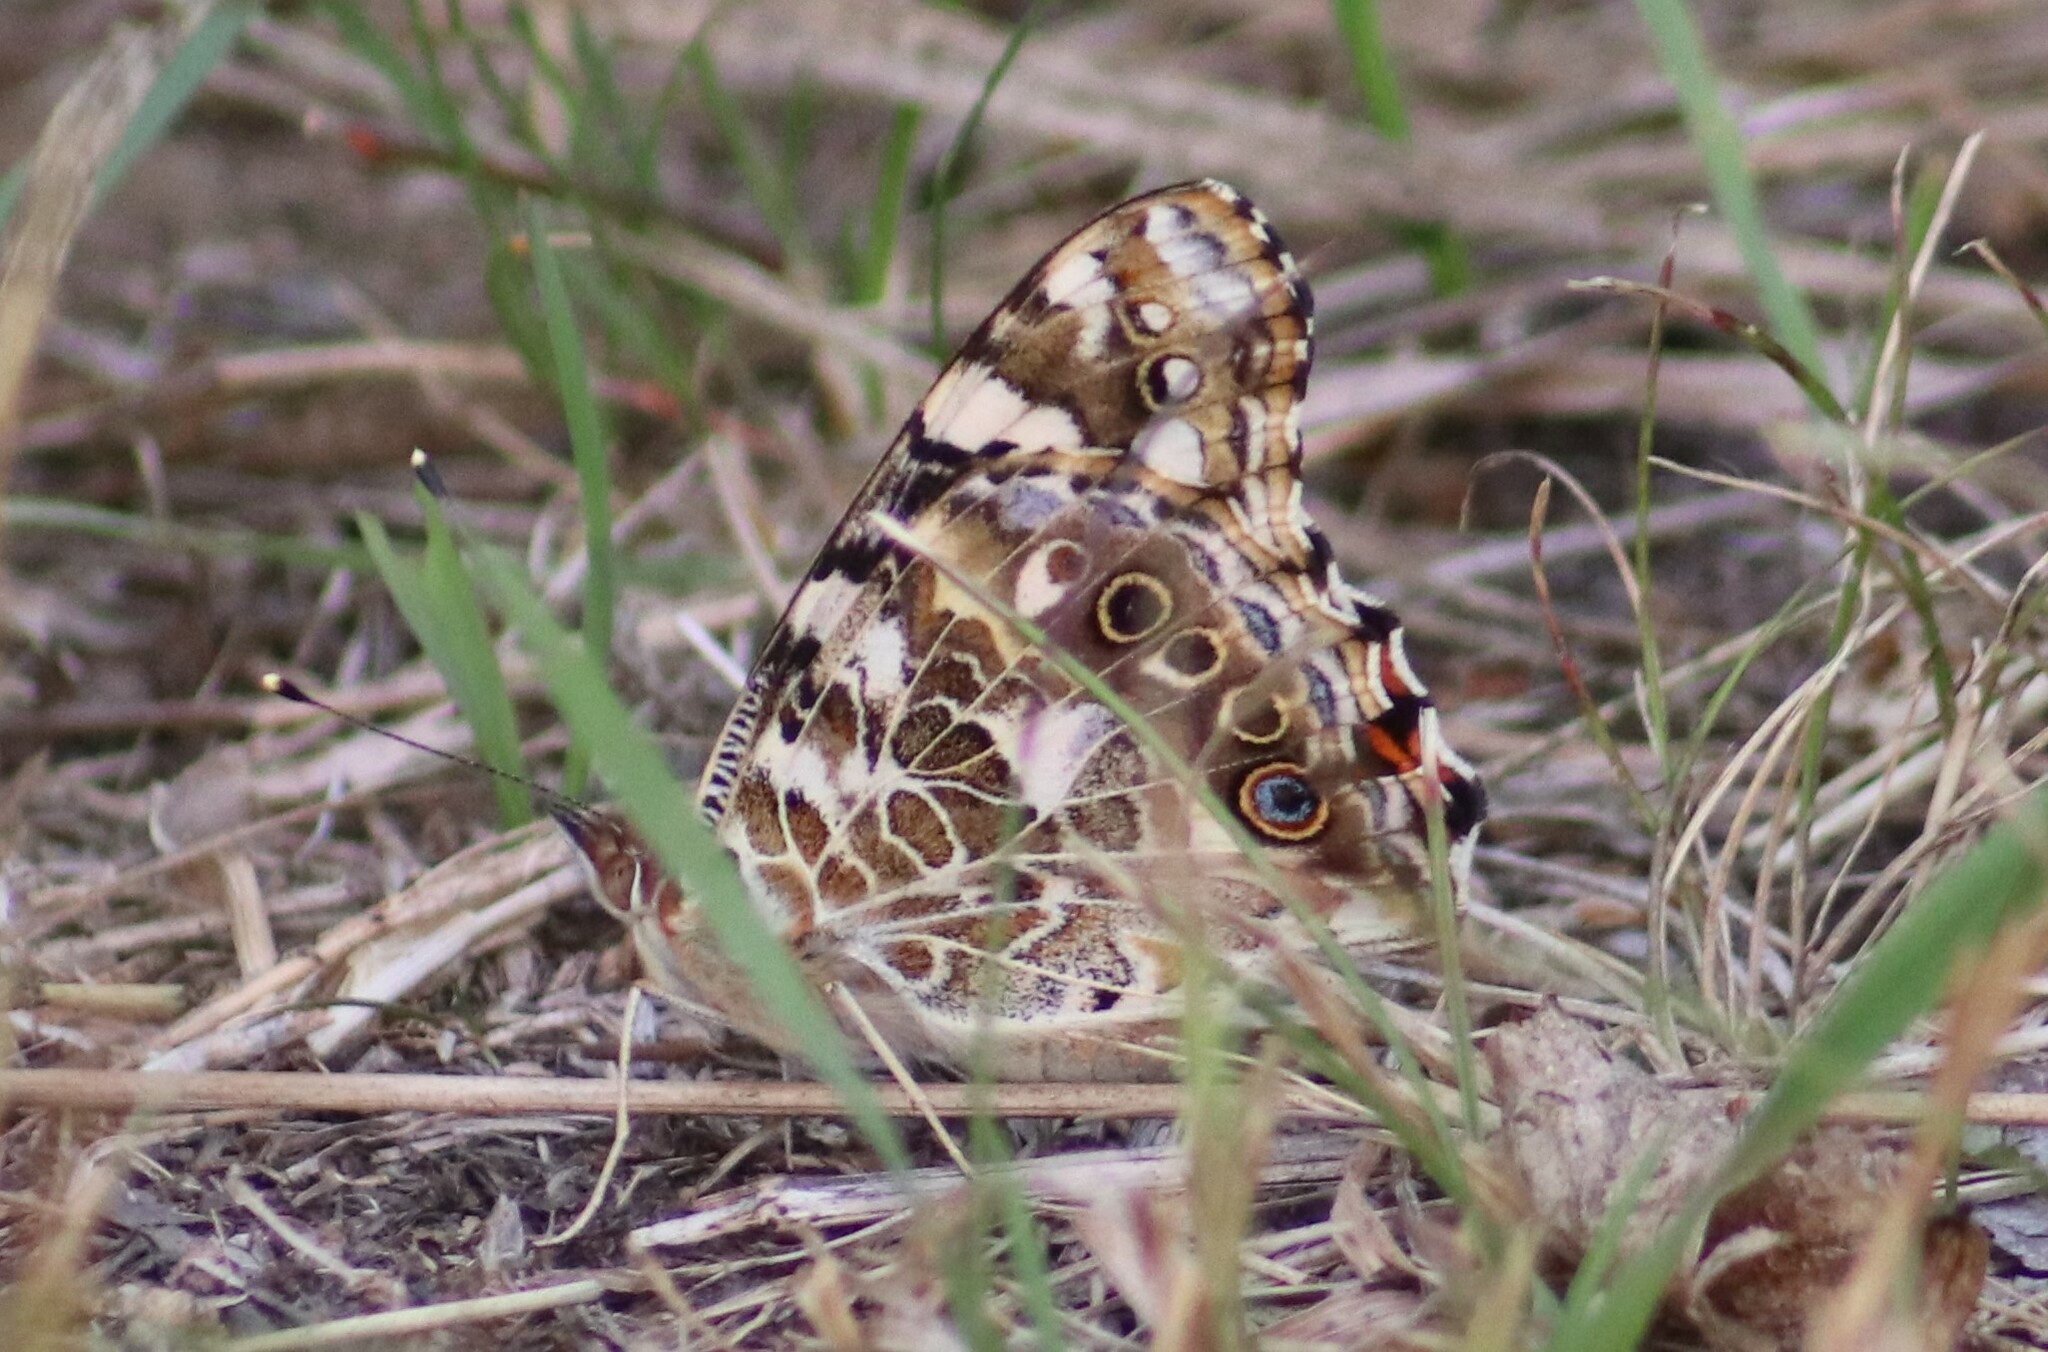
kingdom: Animalia
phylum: Arthropoda
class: Insecta
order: Lepidoptera
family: Nymphalidae
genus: Vanessa
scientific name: Vanessa cardui
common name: Painted lady
